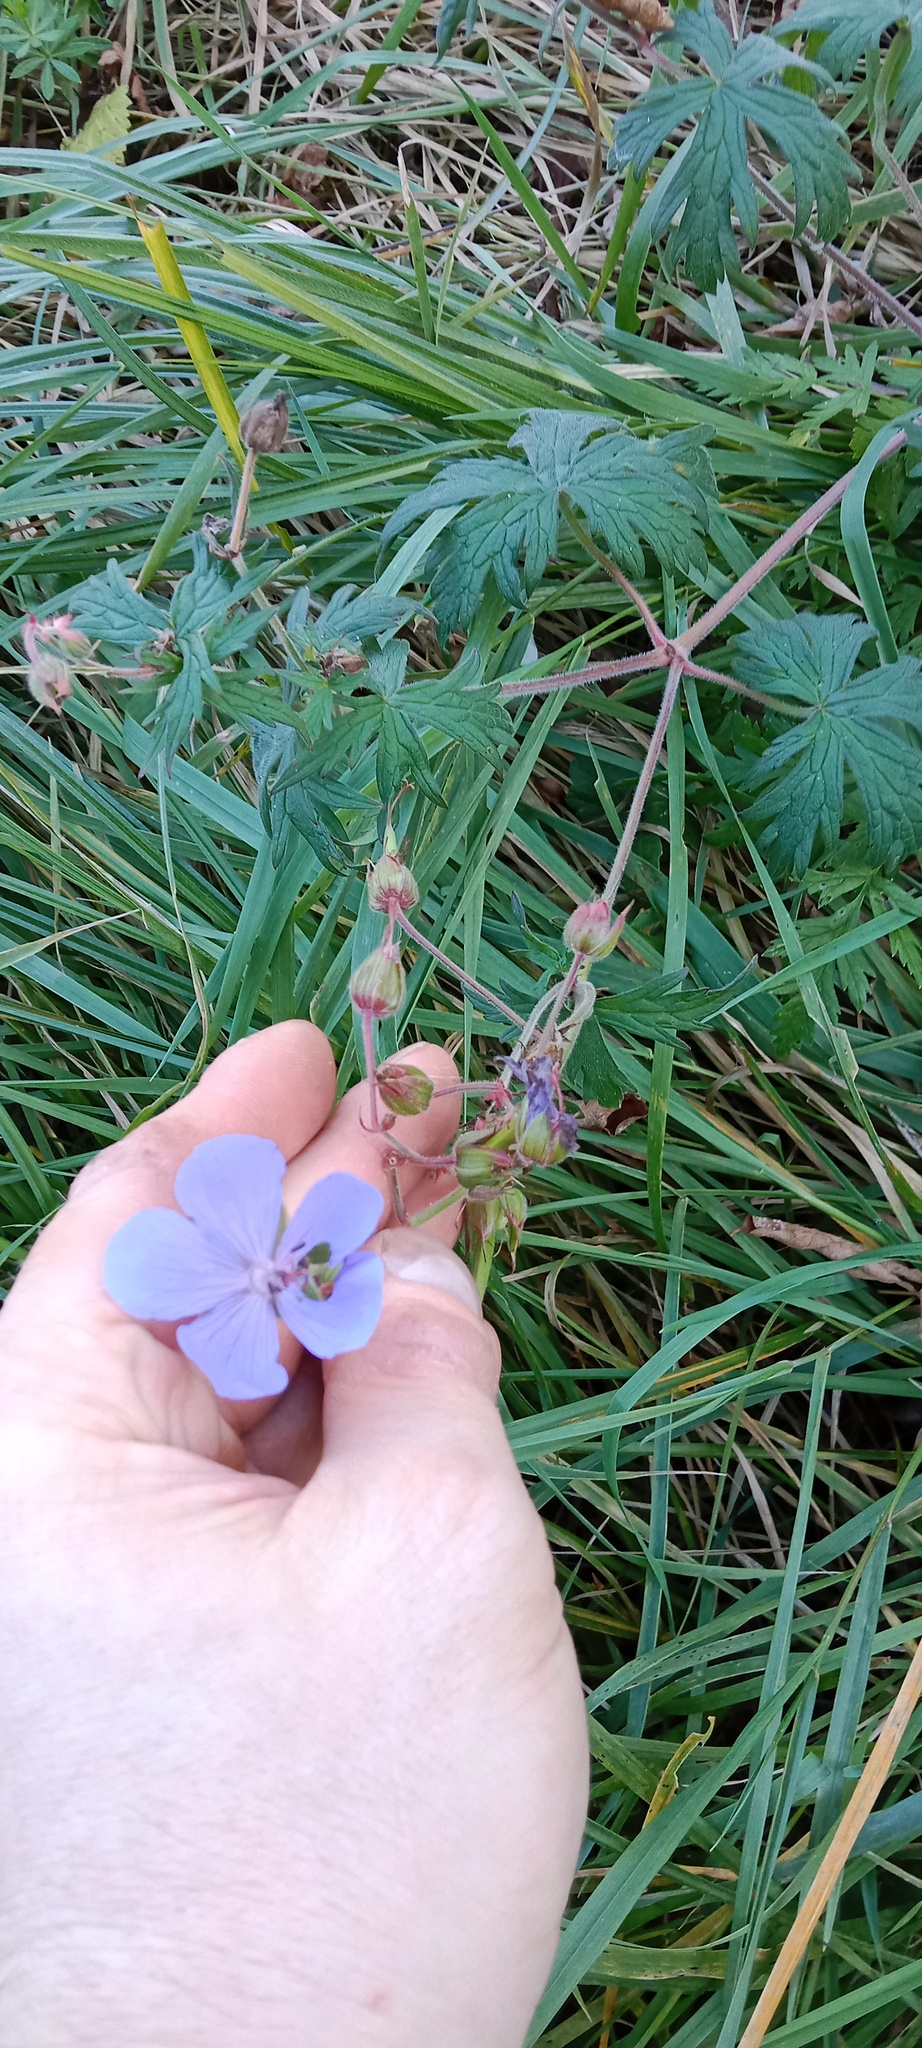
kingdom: Plantae
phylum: Tracheophyta
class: Magnoliopsida
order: Geraniales
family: Geraniaceae
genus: Geranium
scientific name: Geranium pratense
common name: Meadow crane's-bill
